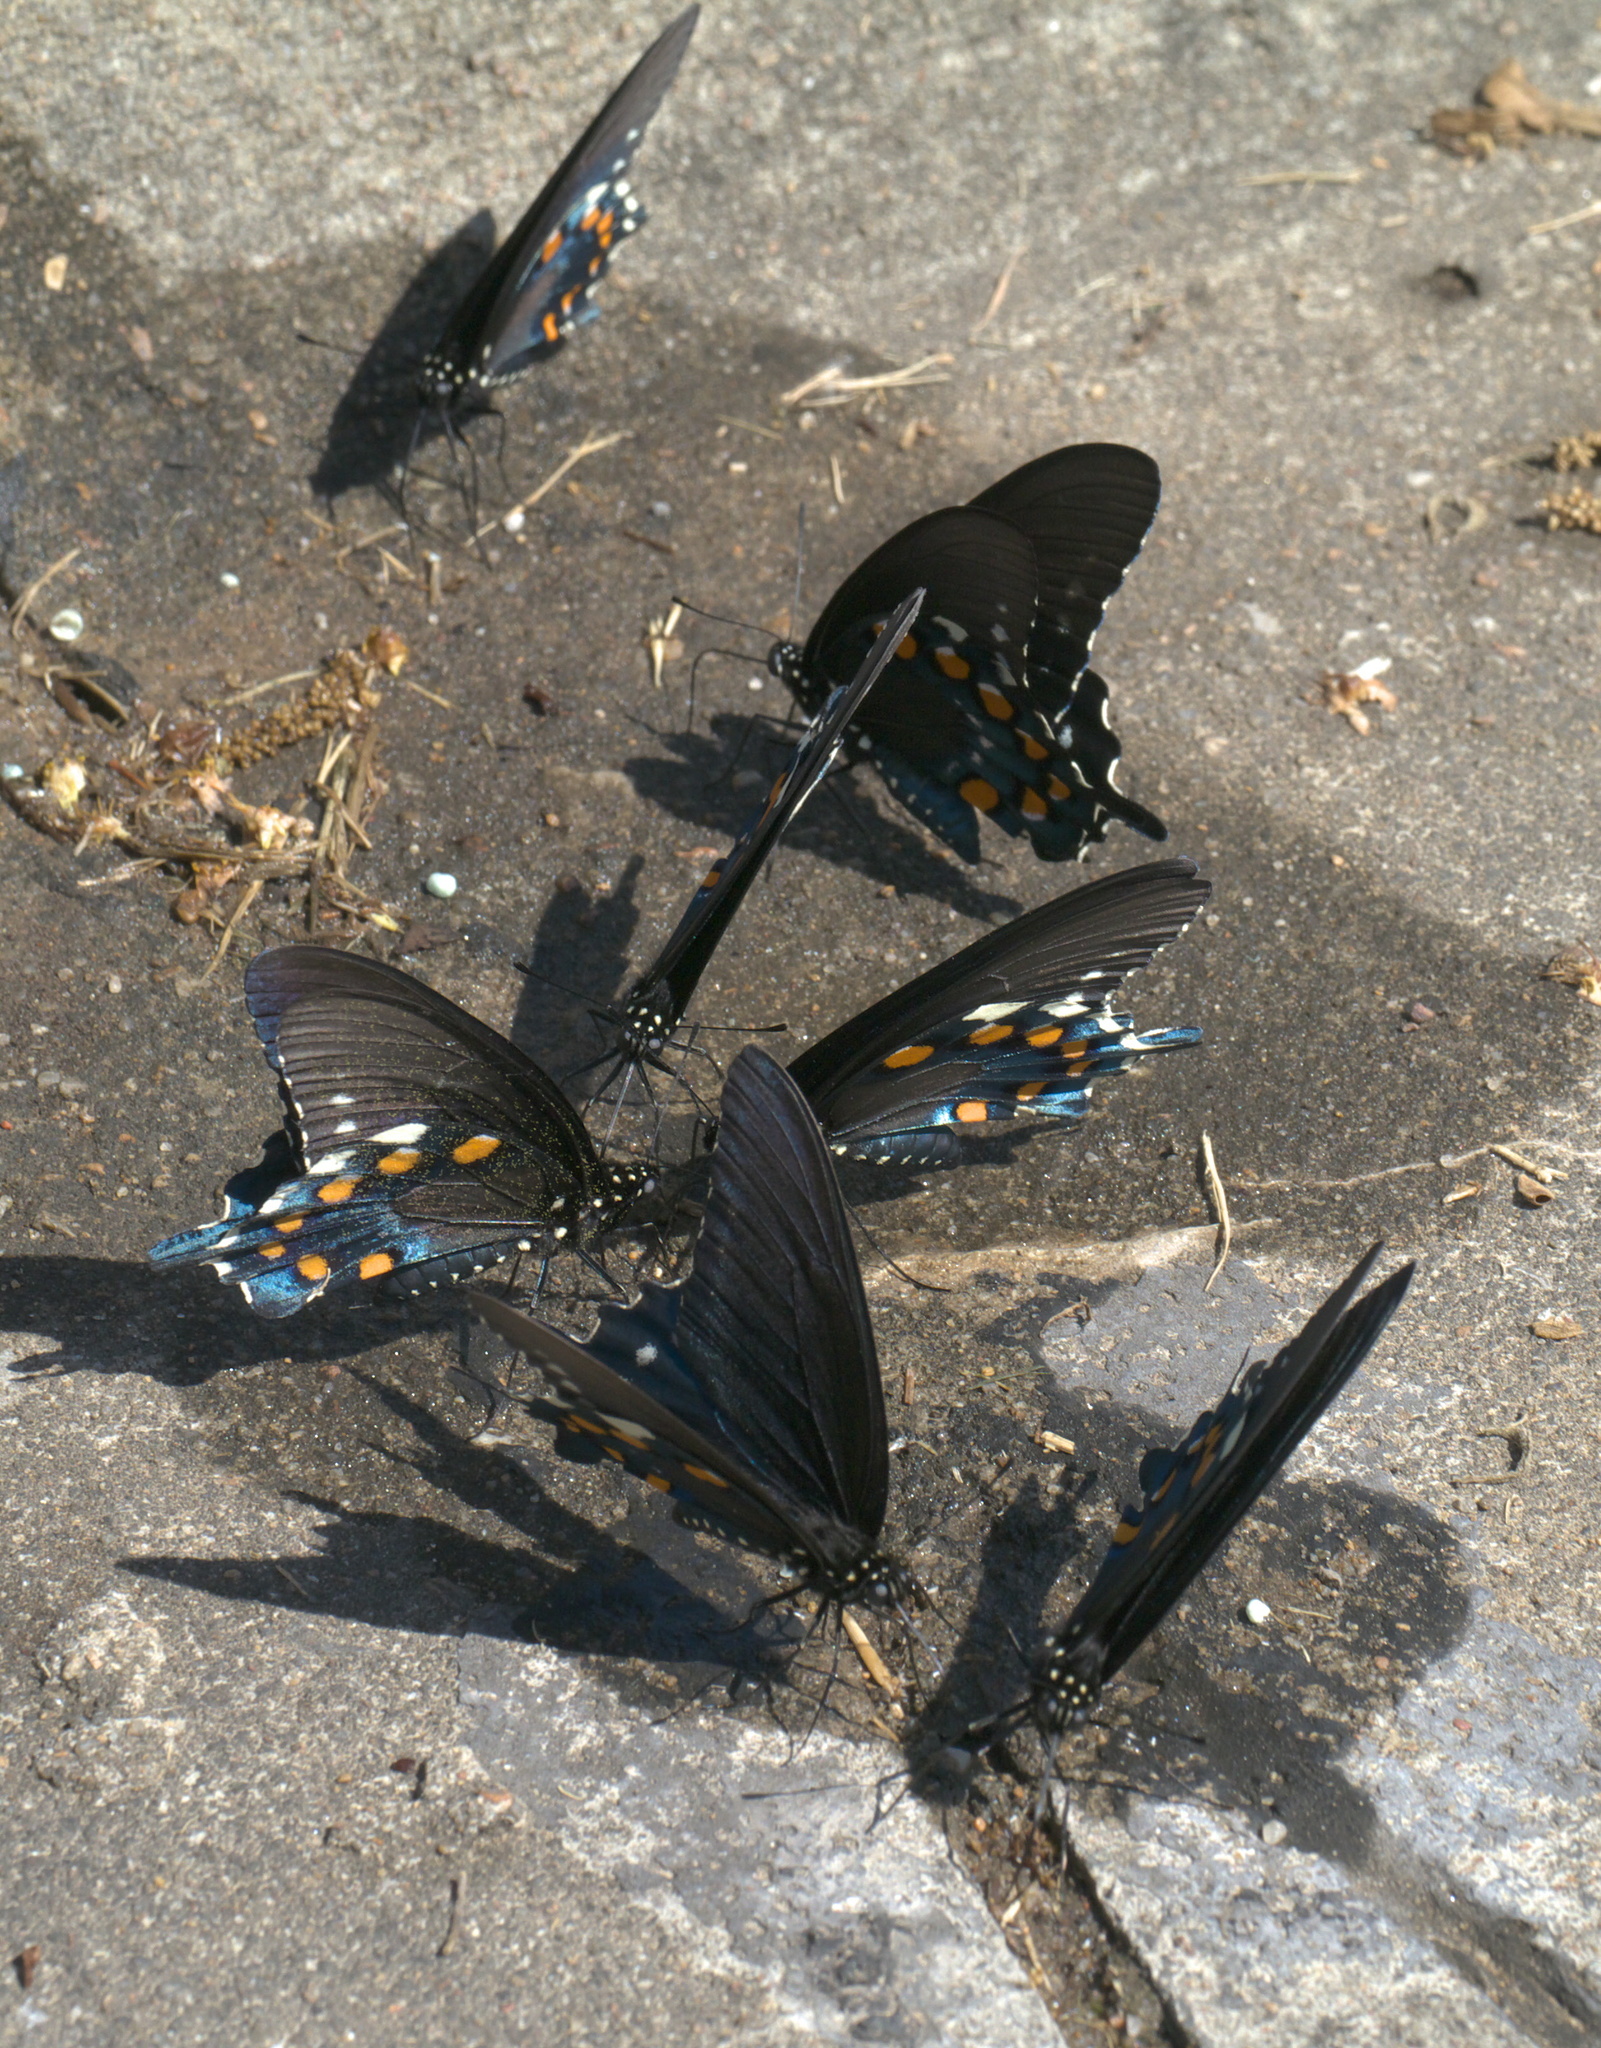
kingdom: Animalia
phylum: Arthropoda
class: Insecta
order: Lepidoptera
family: Papilionidae
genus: Battus
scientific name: Battus philenor
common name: Pipevine swallowtail
